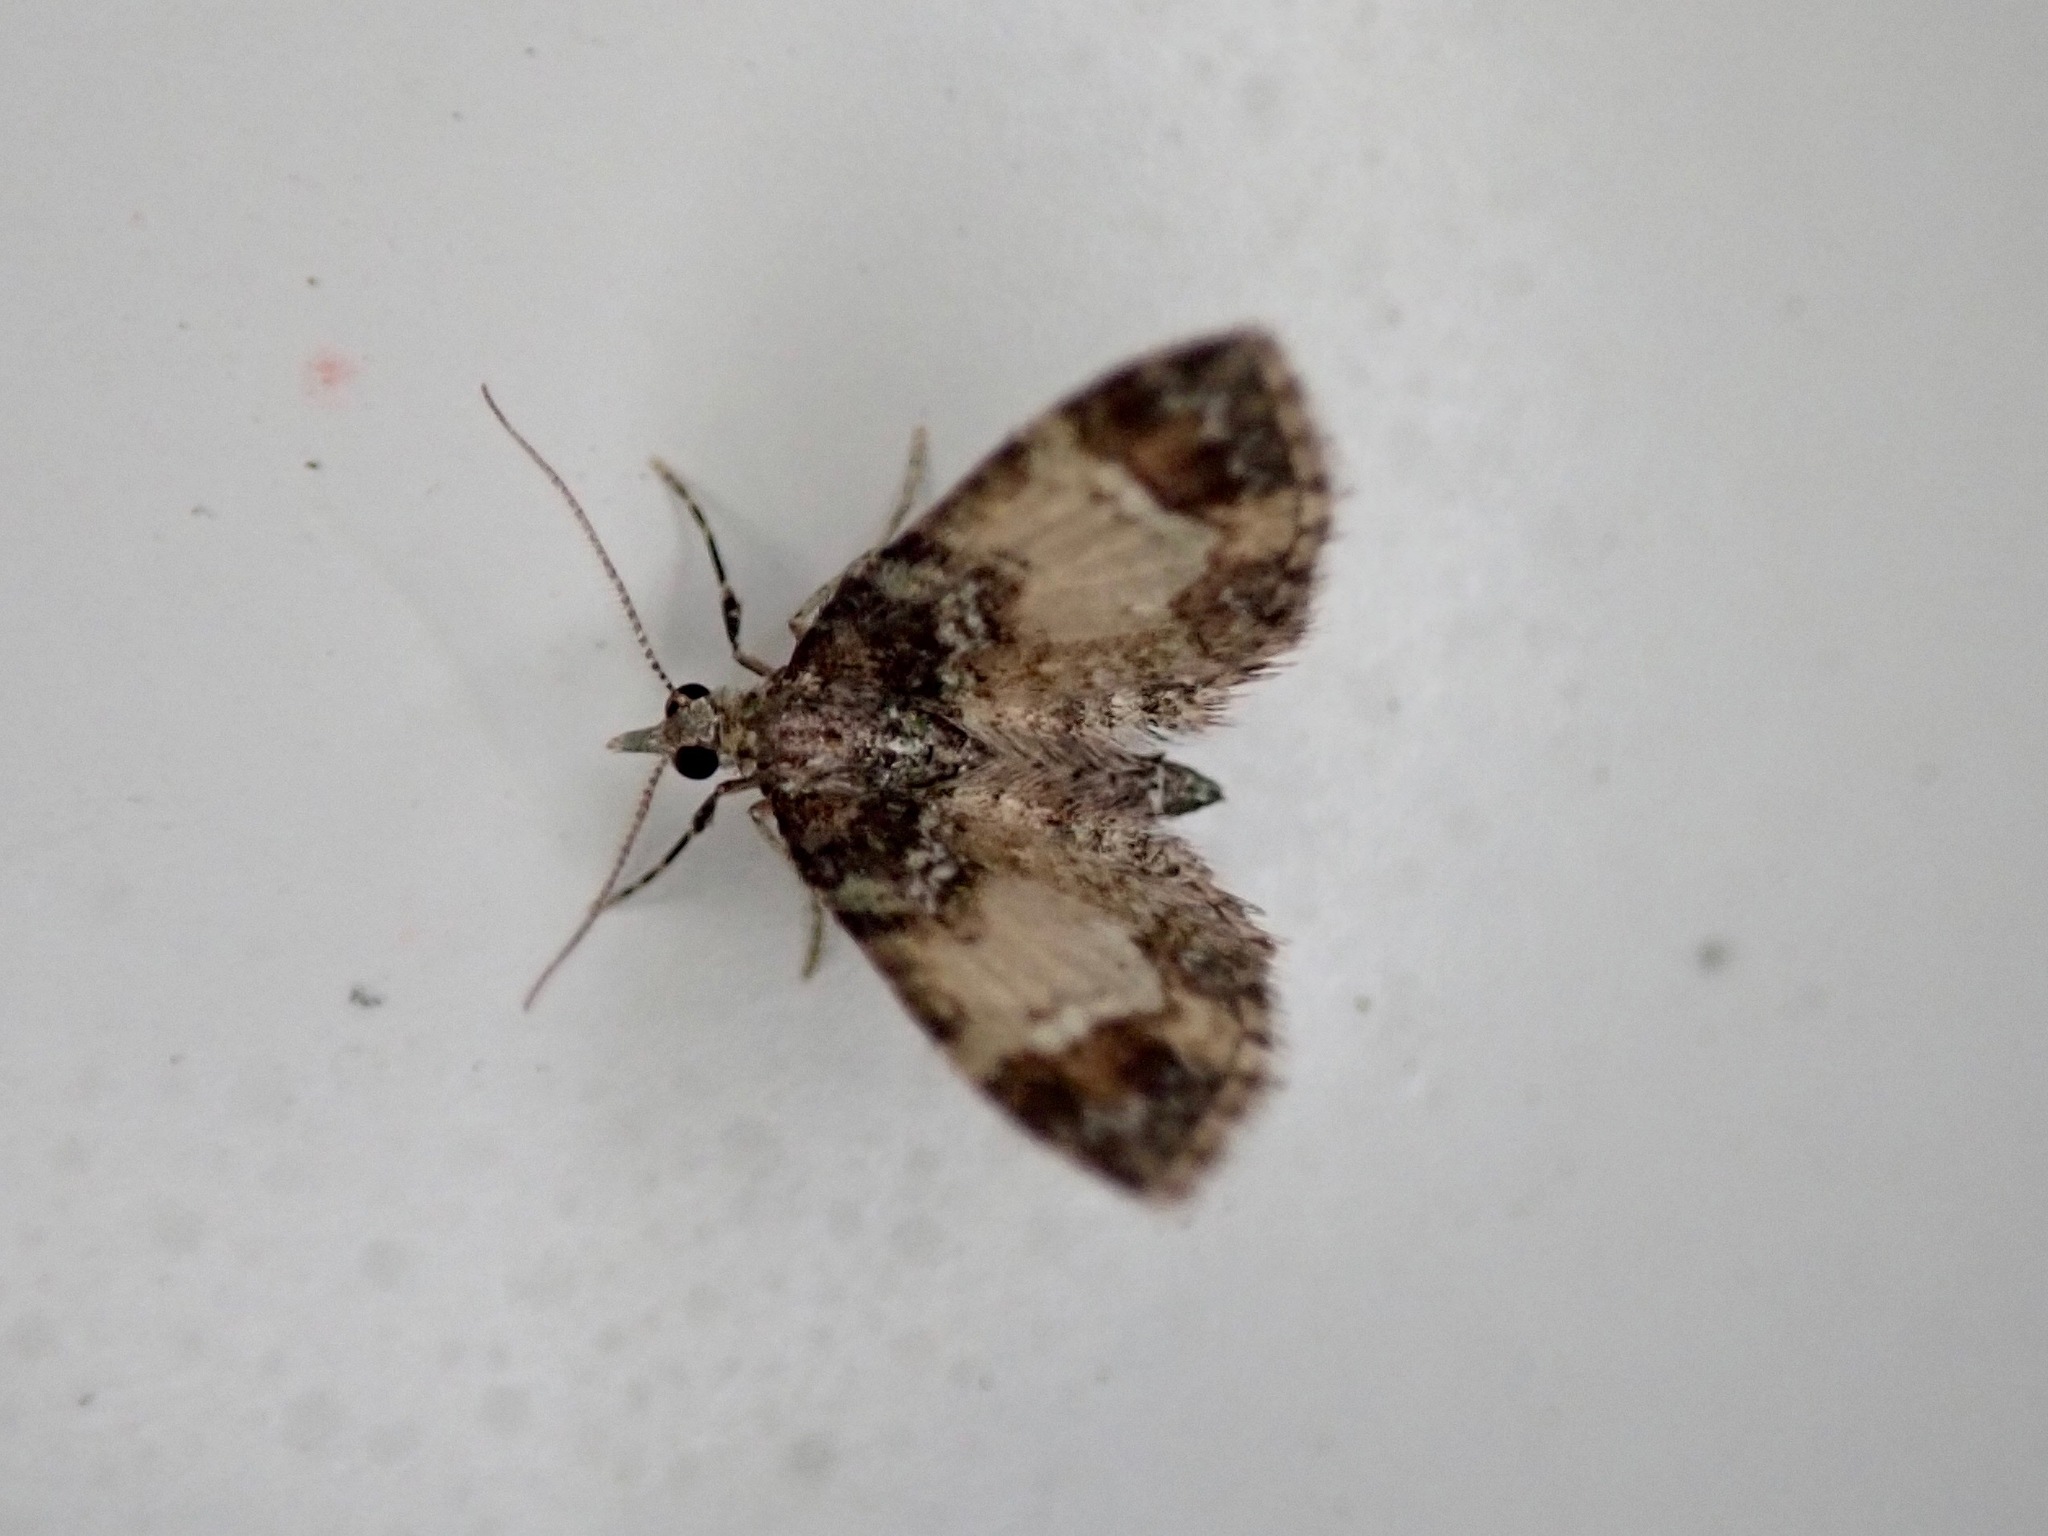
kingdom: Animalia
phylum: Arthropoda
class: Insecta
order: Lepidoptera
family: Geometridae
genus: Pasiphila
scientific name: Pasiphila sandycias
